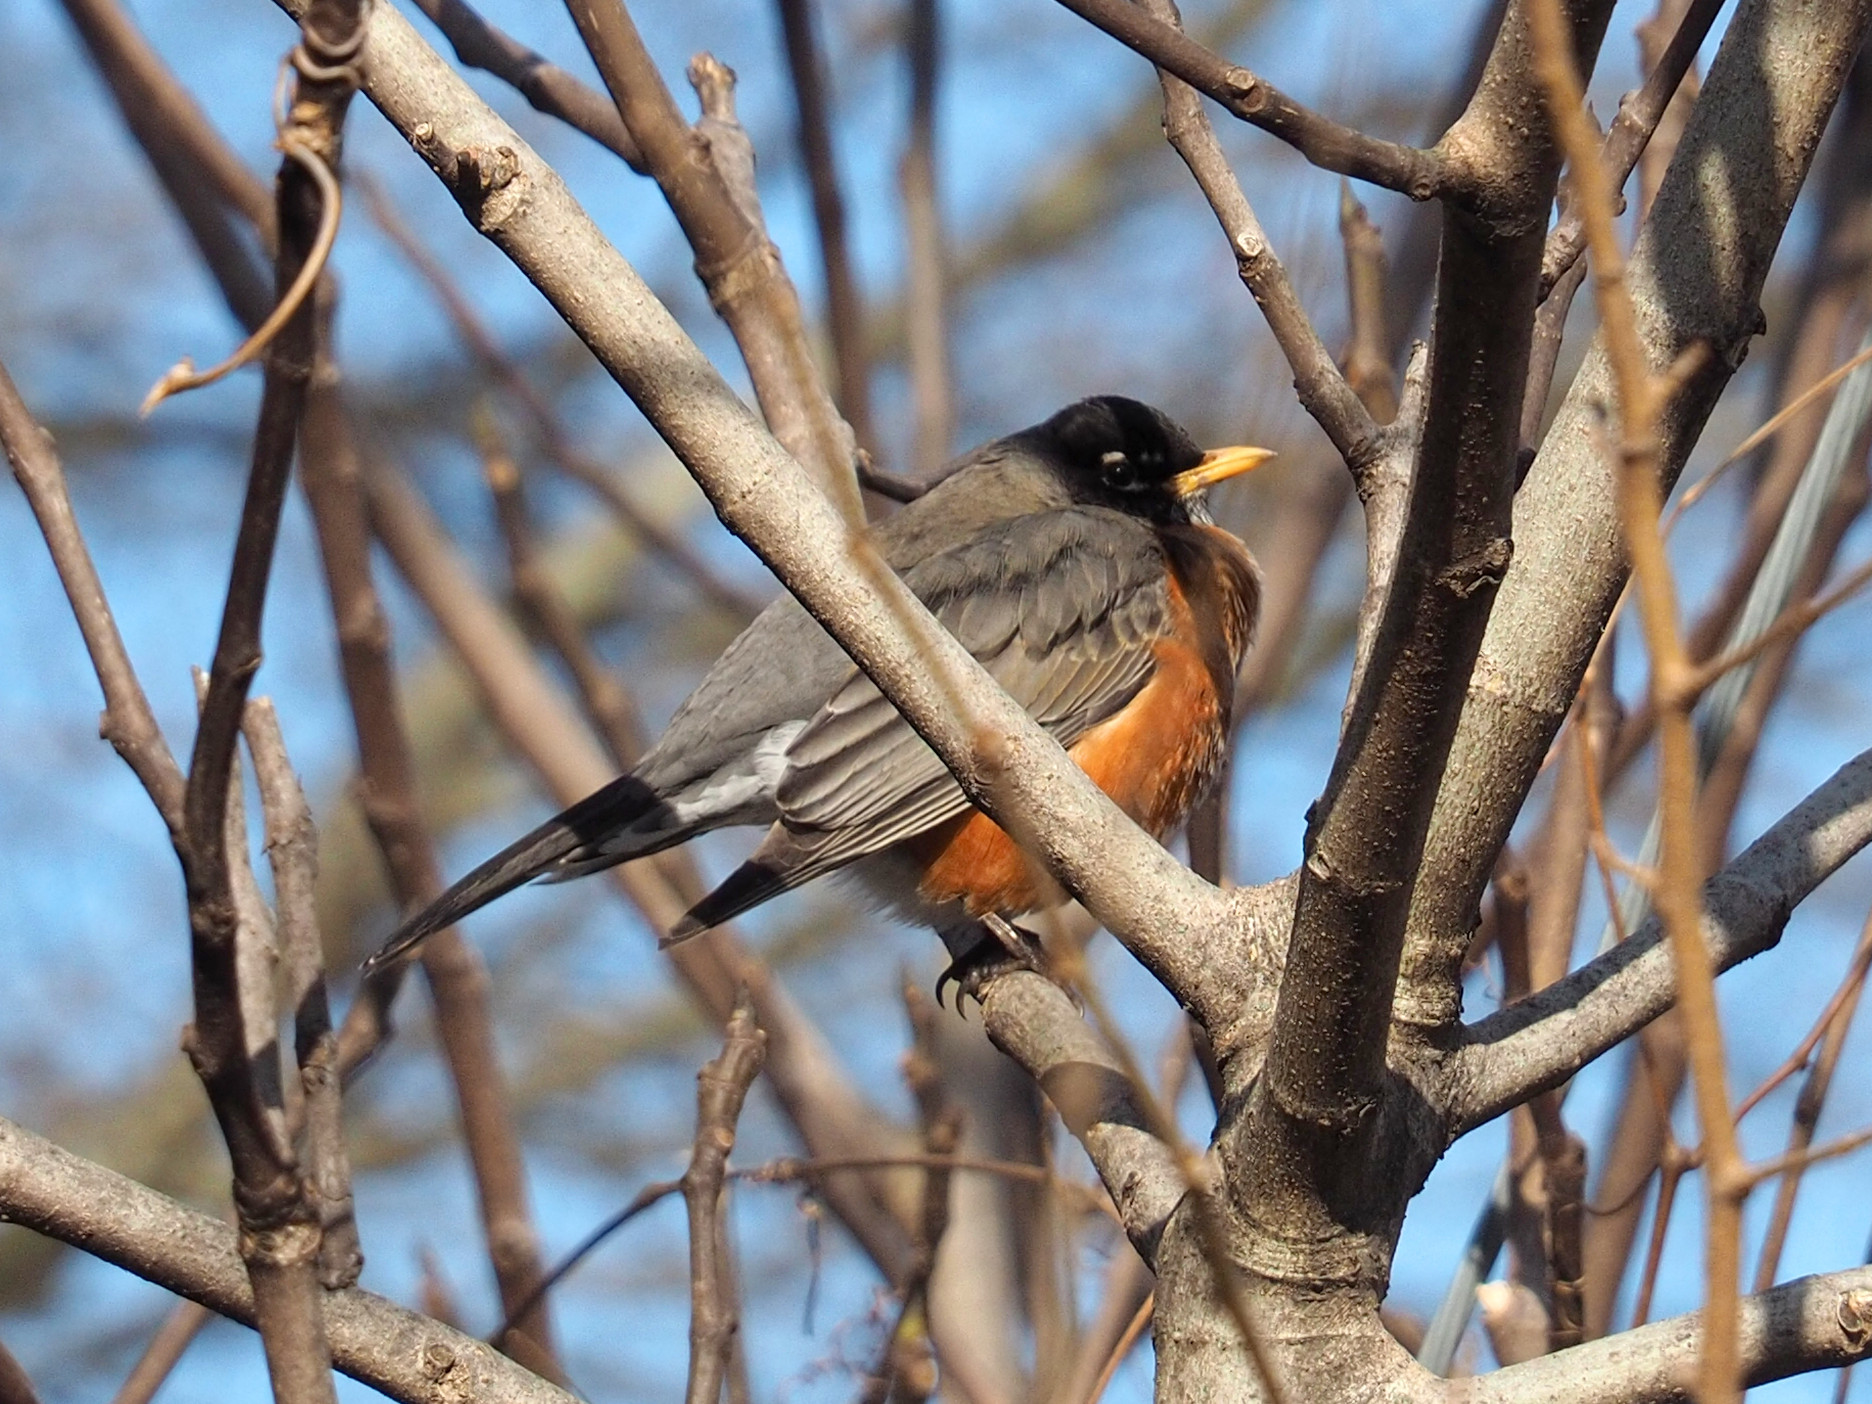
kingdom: Animalia
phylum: Chordata
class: Aves
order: Passeriformes
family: Turdidae
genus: Turdus
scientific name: Turdus migratorius
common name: American robin
